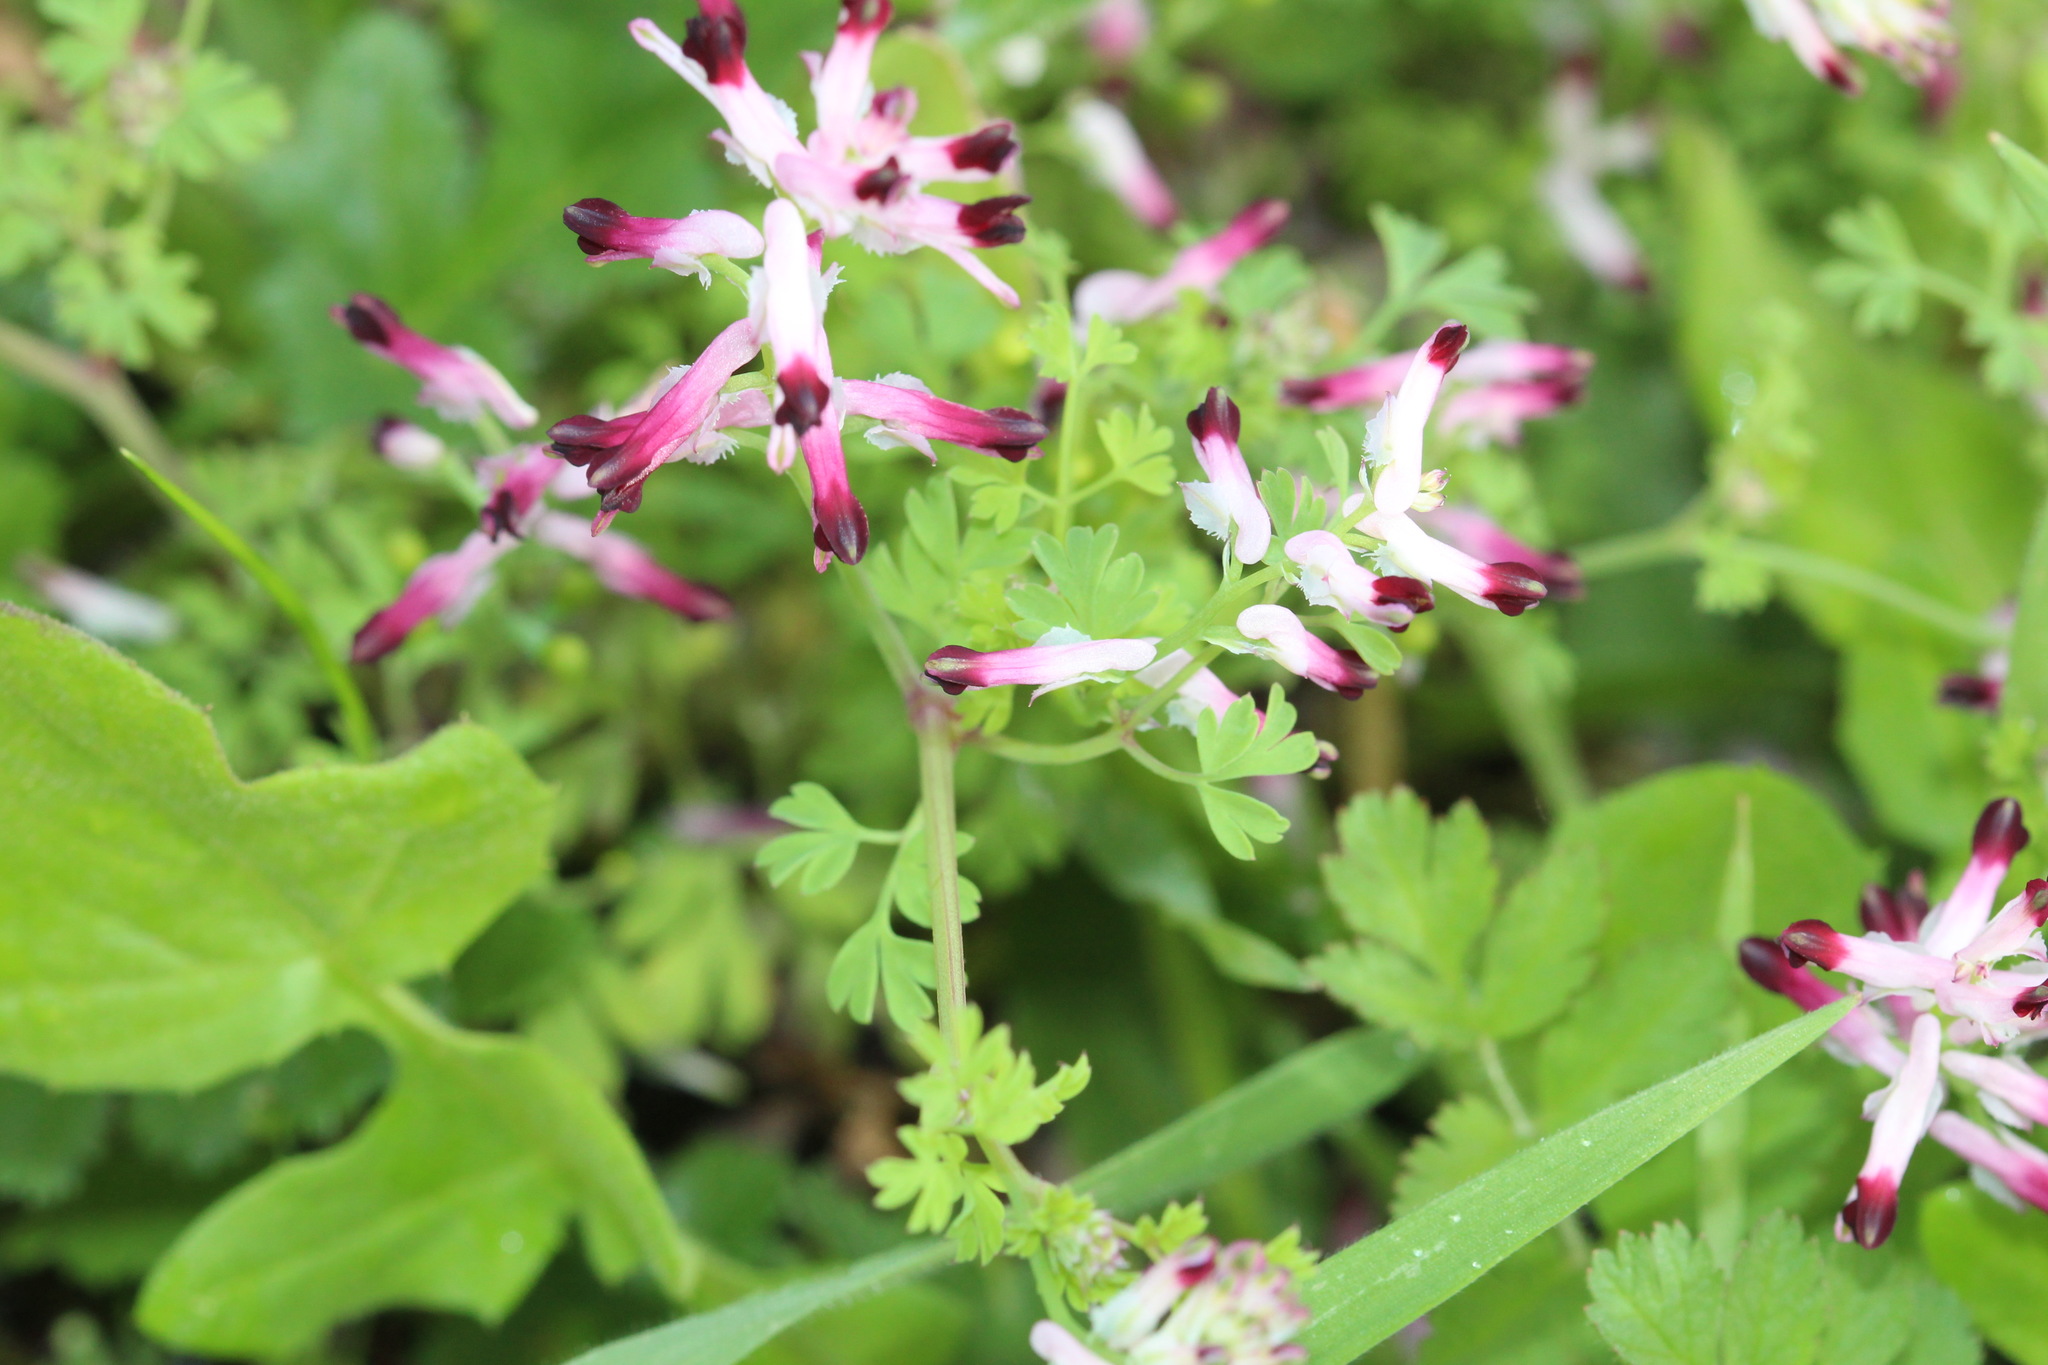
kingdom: Plantae
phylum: Tracheophyta
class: Magnoliopsida
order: Ranunculales
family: Papaveraceae
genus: Fumaria
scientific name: Fumaria muralis
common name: Common ramping-fumitory
